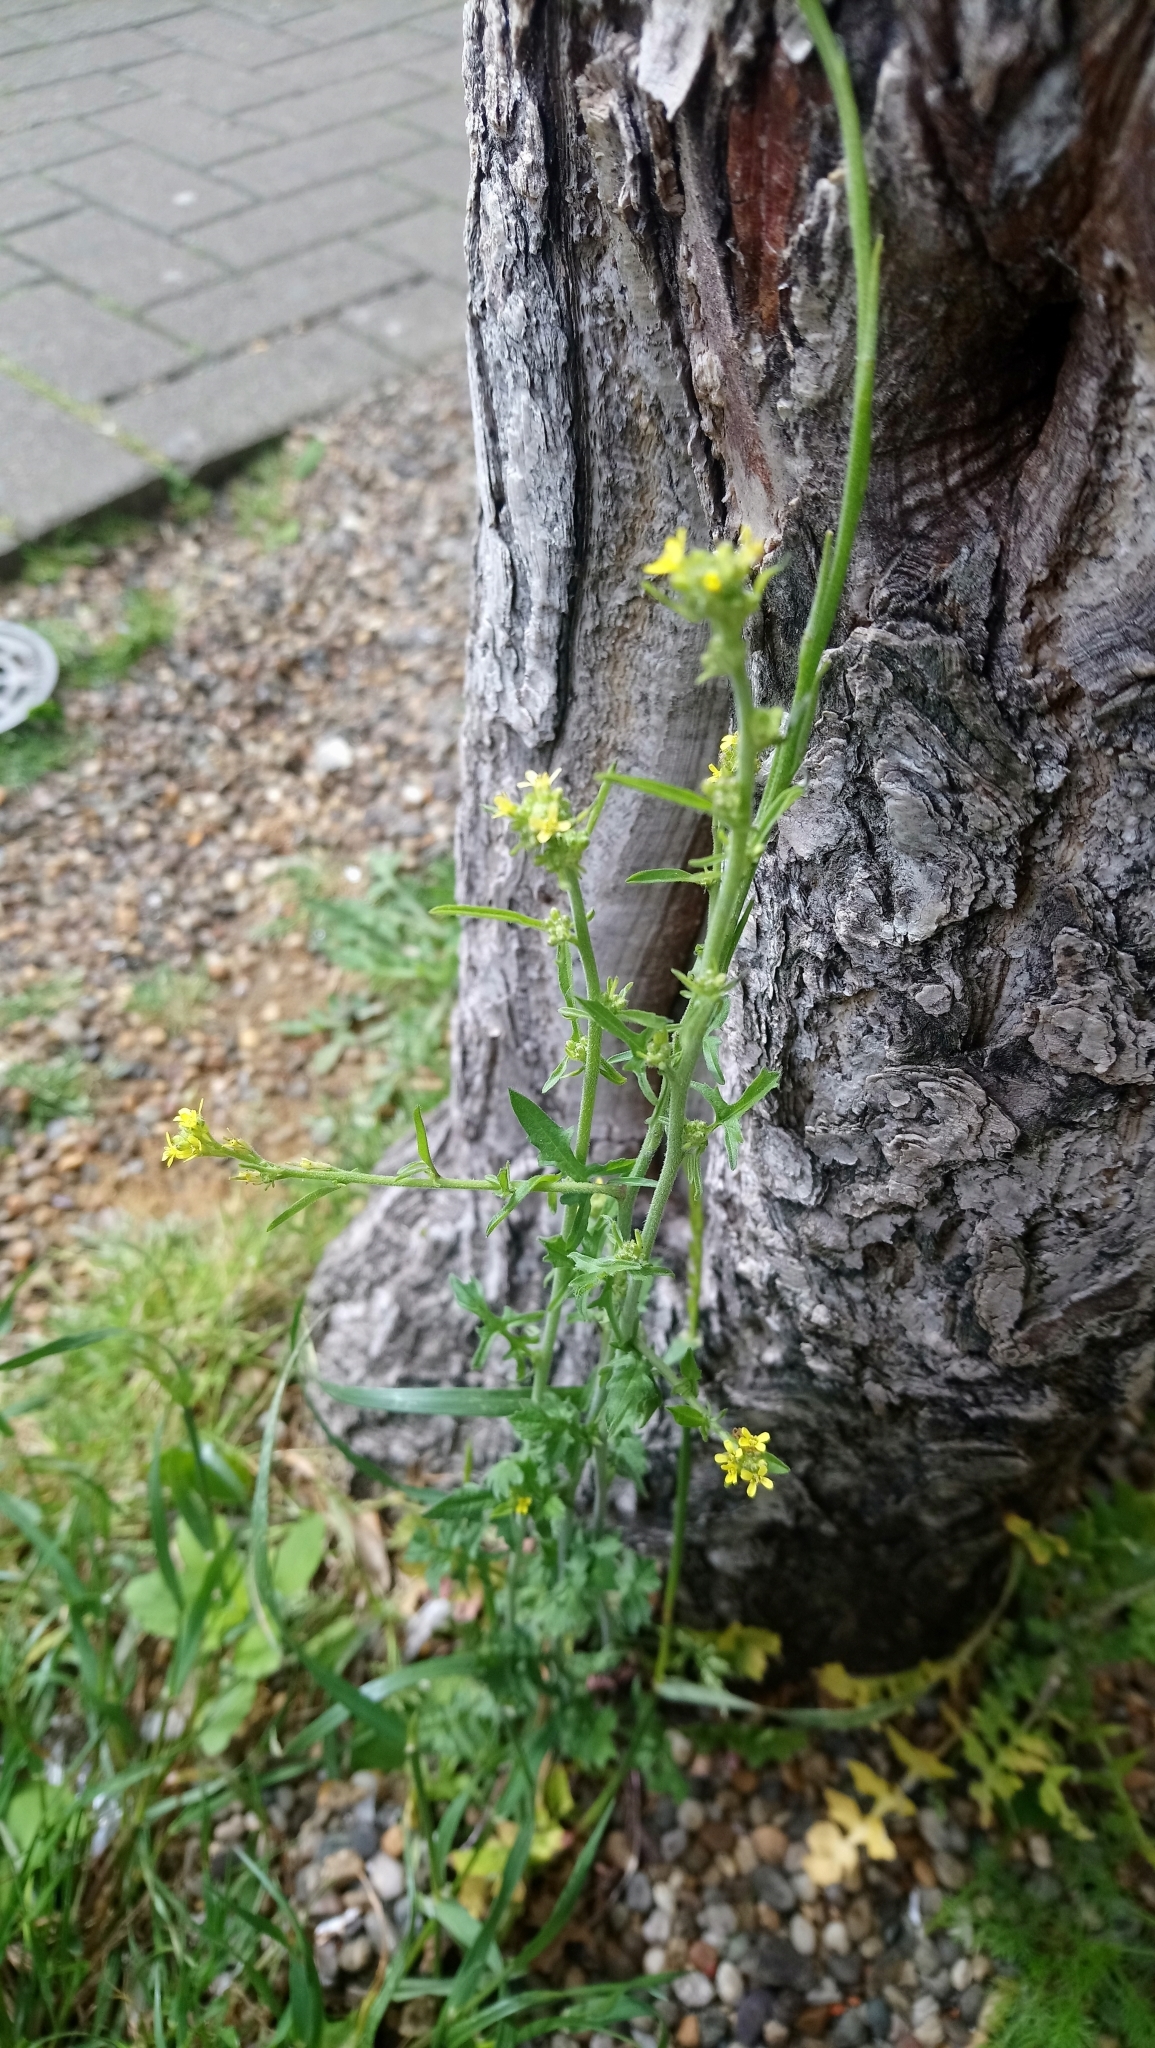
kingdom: Plantae
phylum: Tracheophyta
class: Magnoliopsida
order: Brassicales
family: Brassicaceae
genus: Sisymbrium
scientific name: Sisymbrium officinale
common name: Hedge mustard
